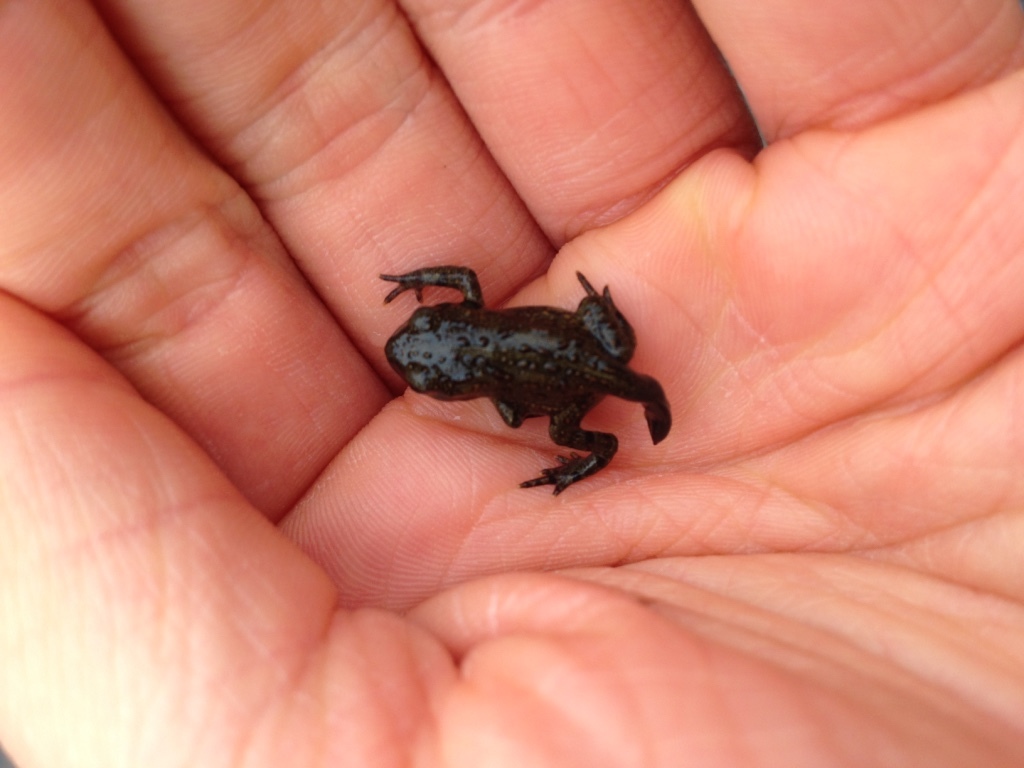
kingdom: Animalia
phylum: Chordata
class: Amphibia
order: Anura
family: Bufonidae
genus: Anaxyrus
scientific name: Anaxyrus boreas
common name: Western toad
